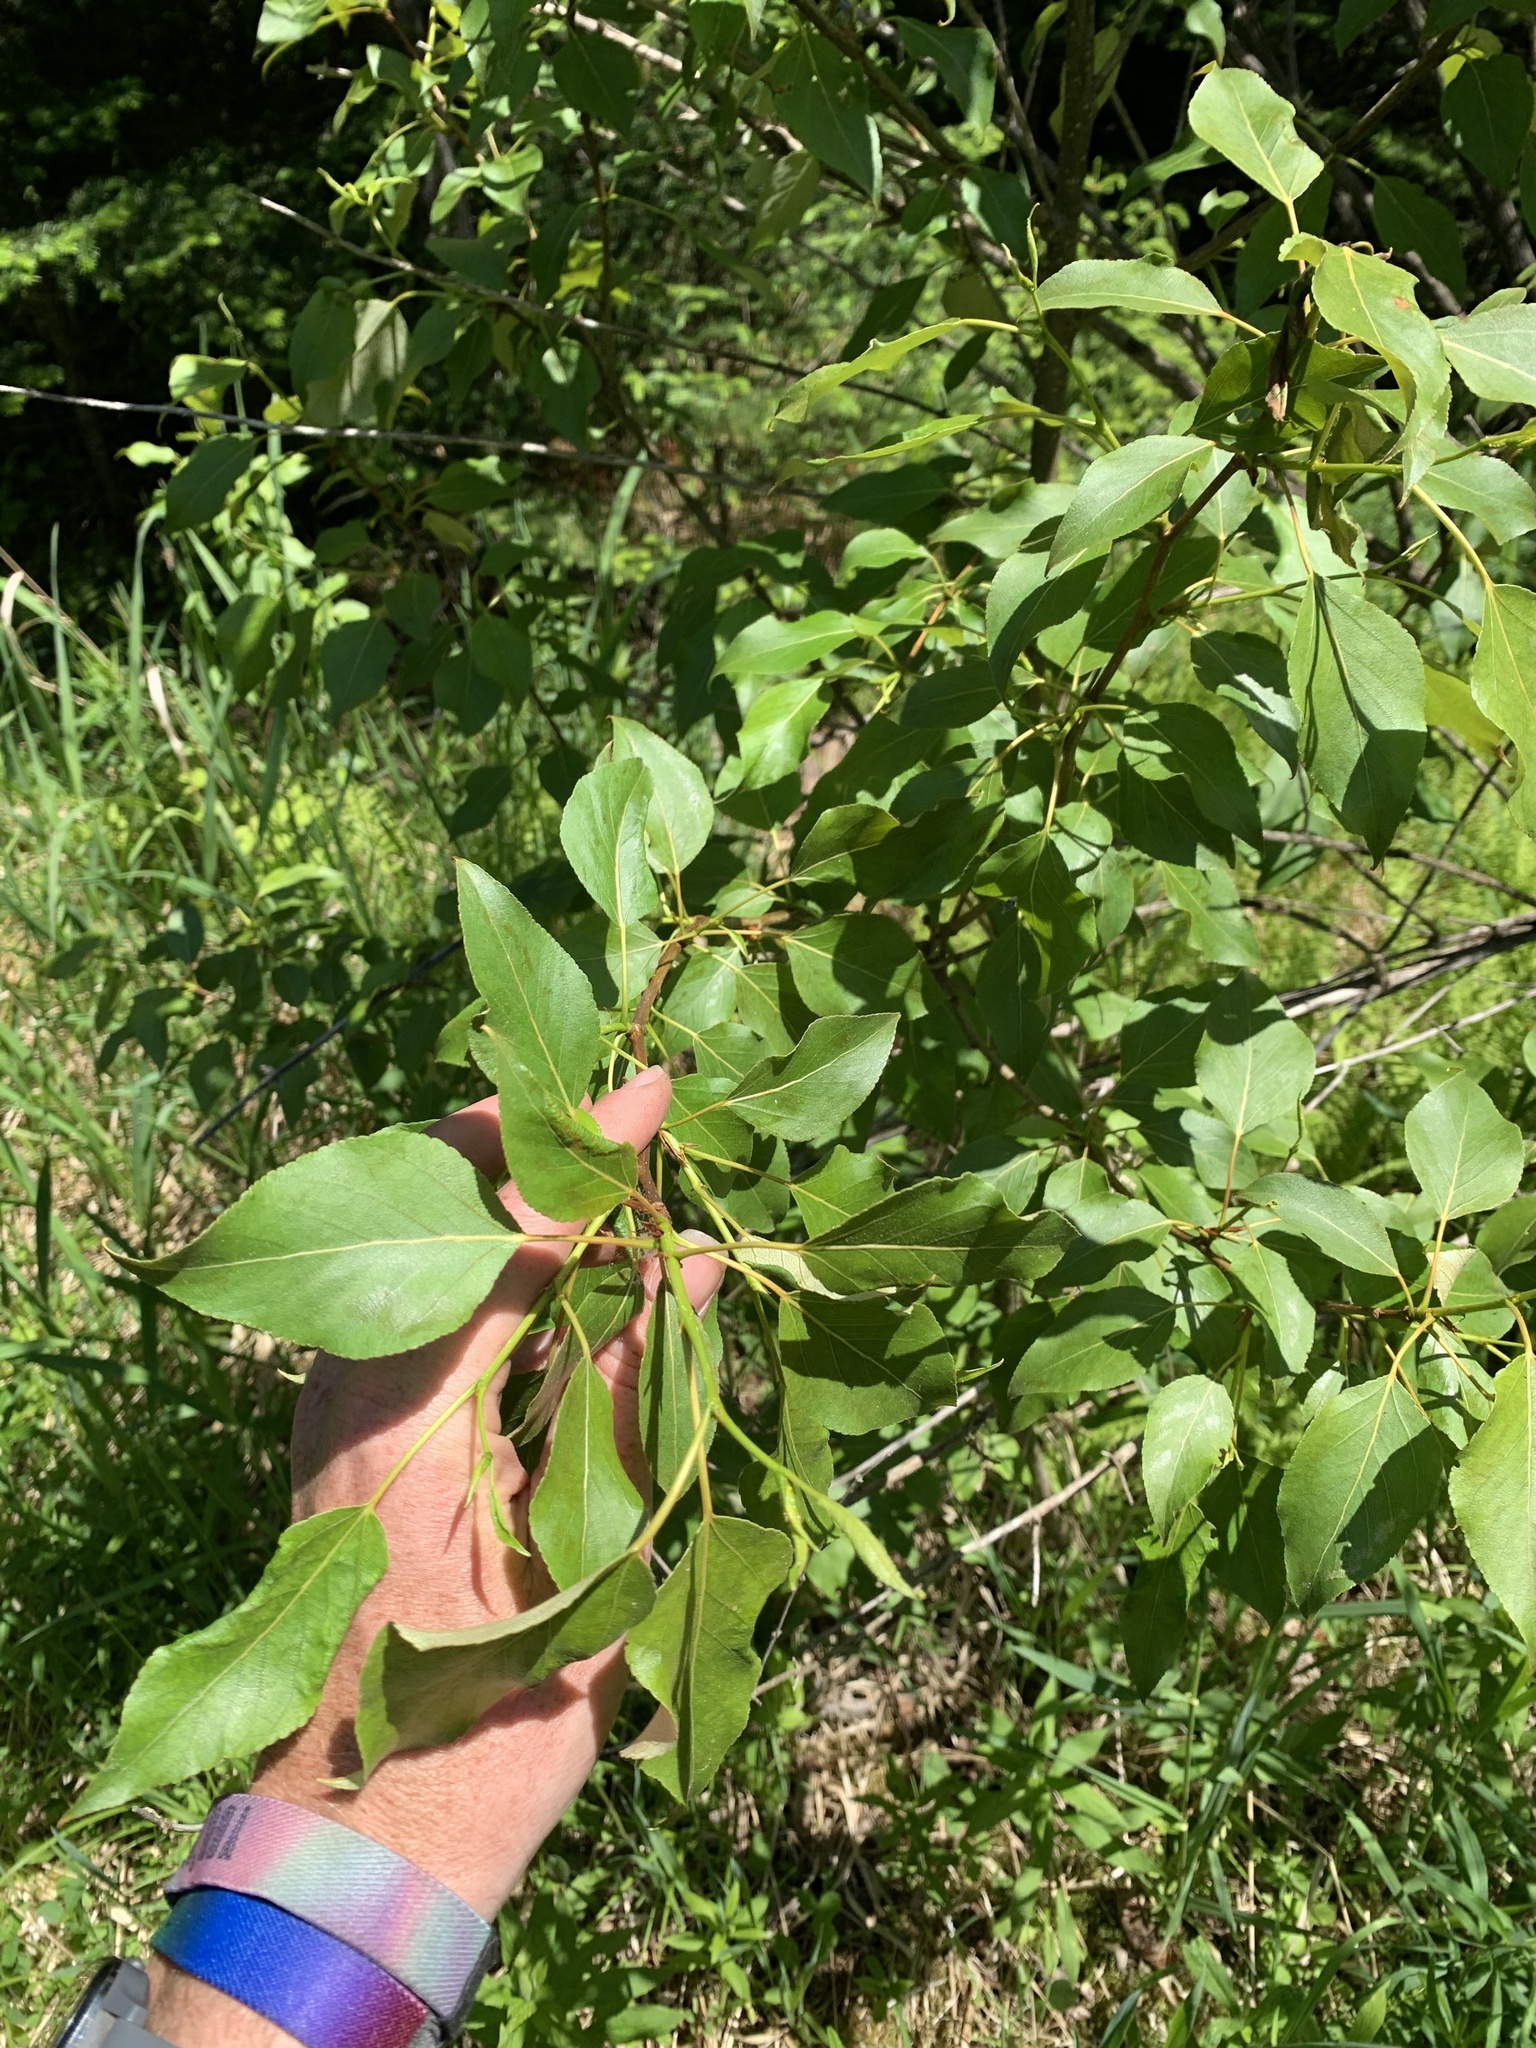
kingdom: Plantae
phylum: Tracheophyta
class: Magnoliopsida
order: Malpighiales
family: Salicaceae
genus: Populus
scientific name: Populus balsamifera
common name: Balsam poplar
